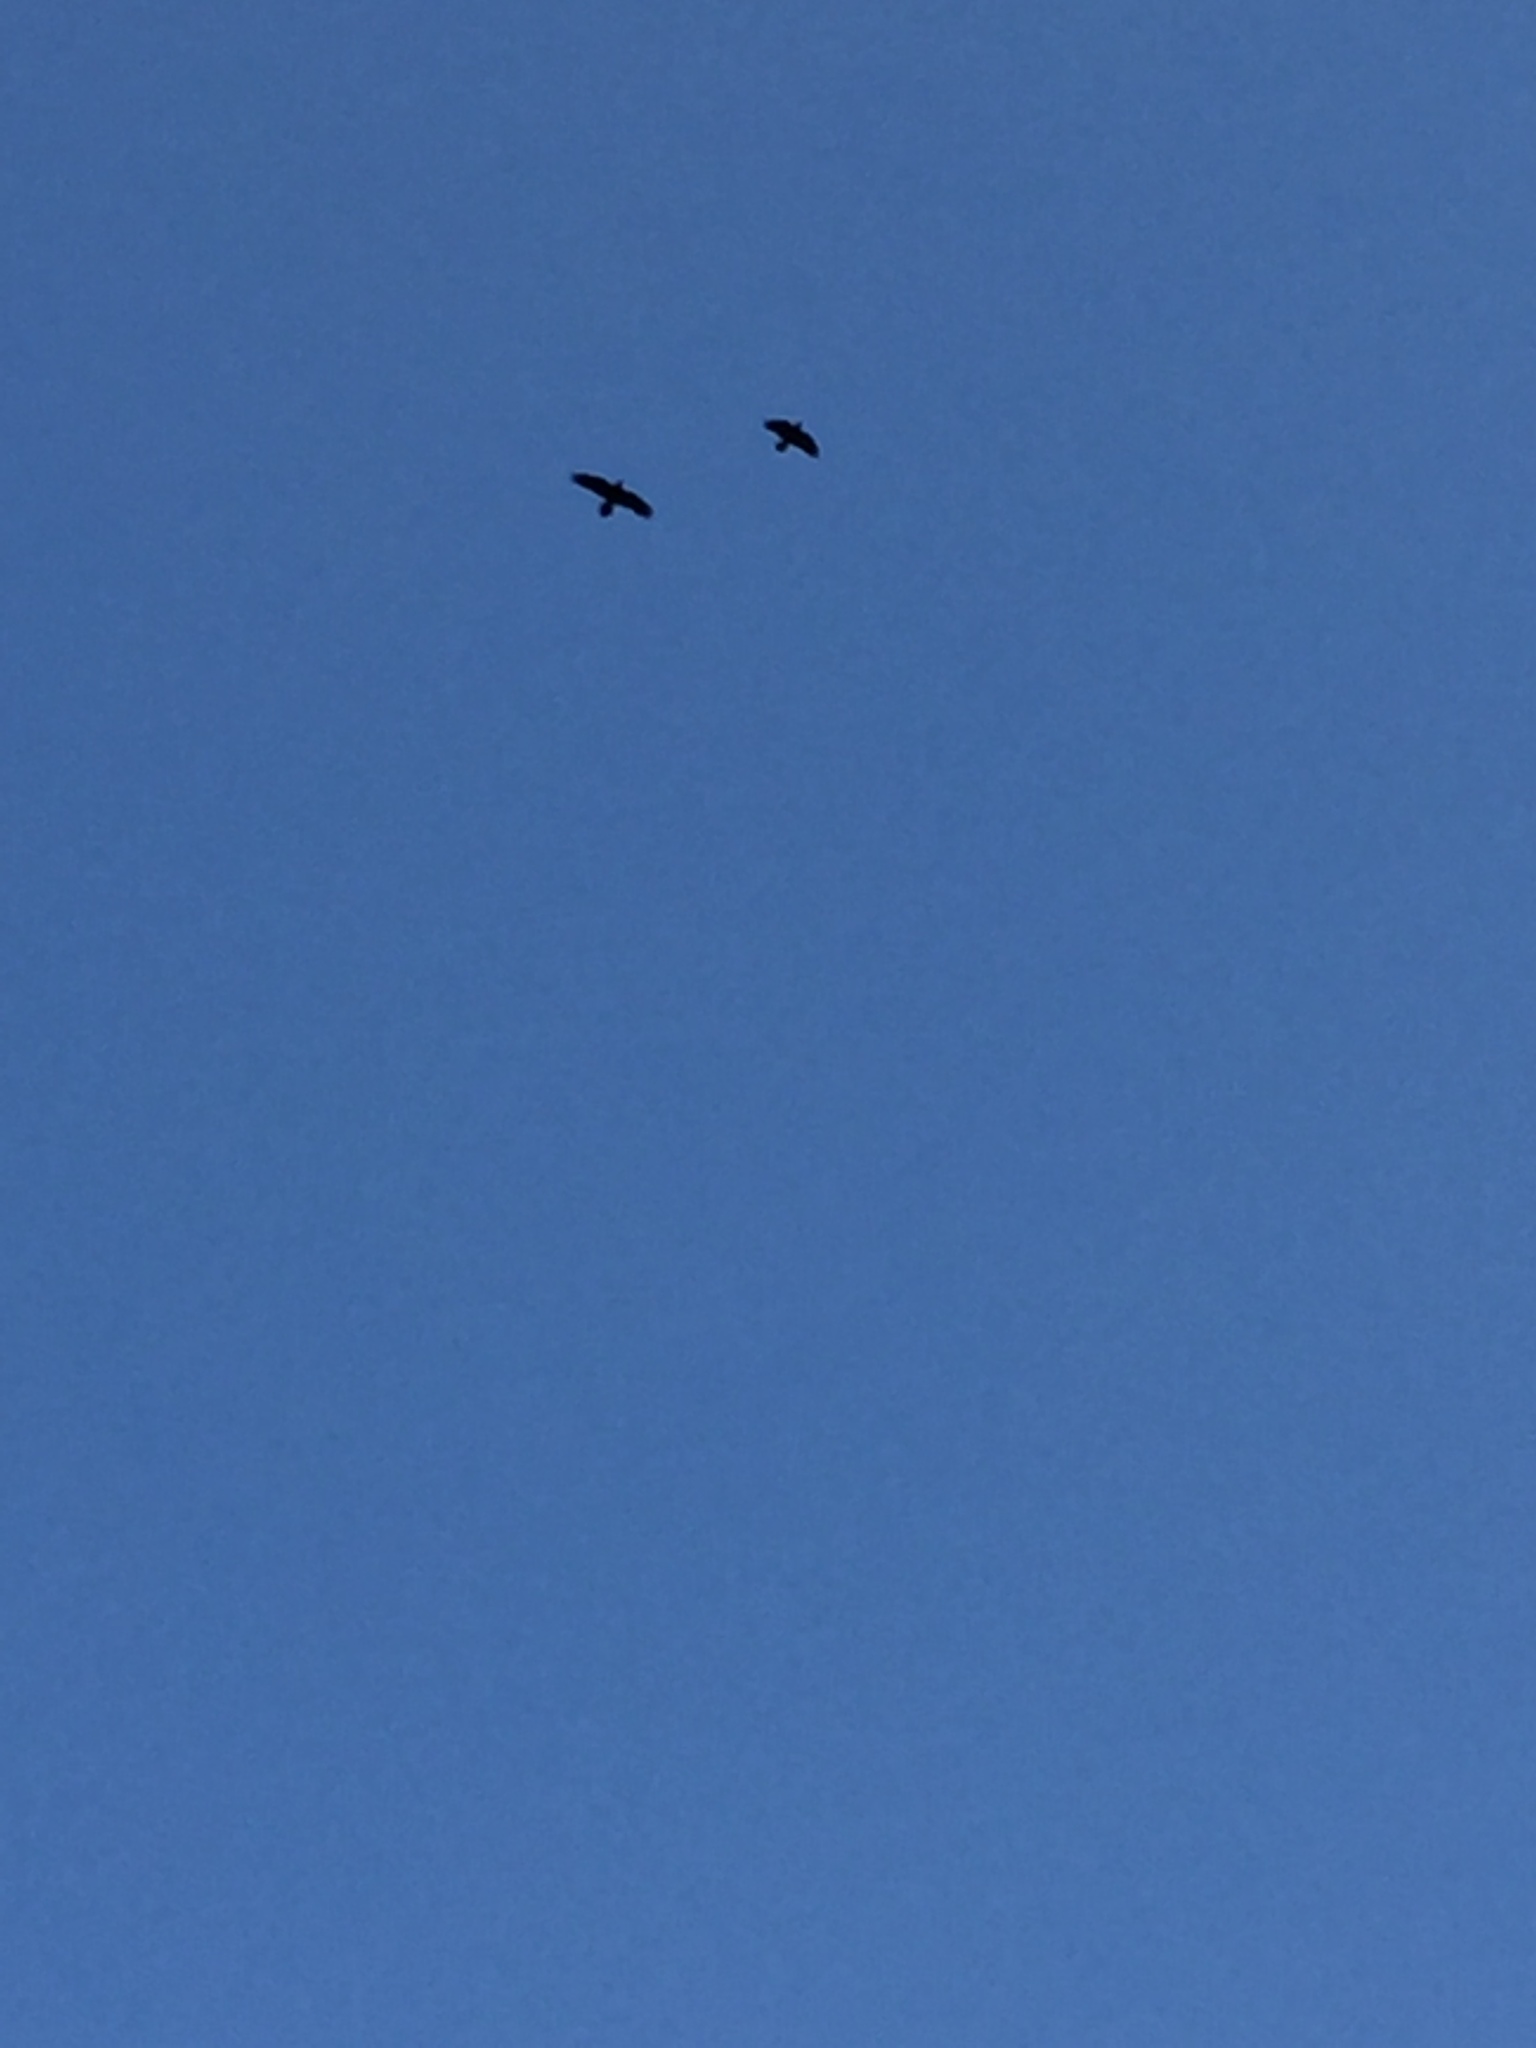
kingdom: Animalia
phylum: Chordata
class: Aves
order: Passeriformes
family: Corvidae
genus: Corvus
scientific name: Corvus corax
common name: Common raven
